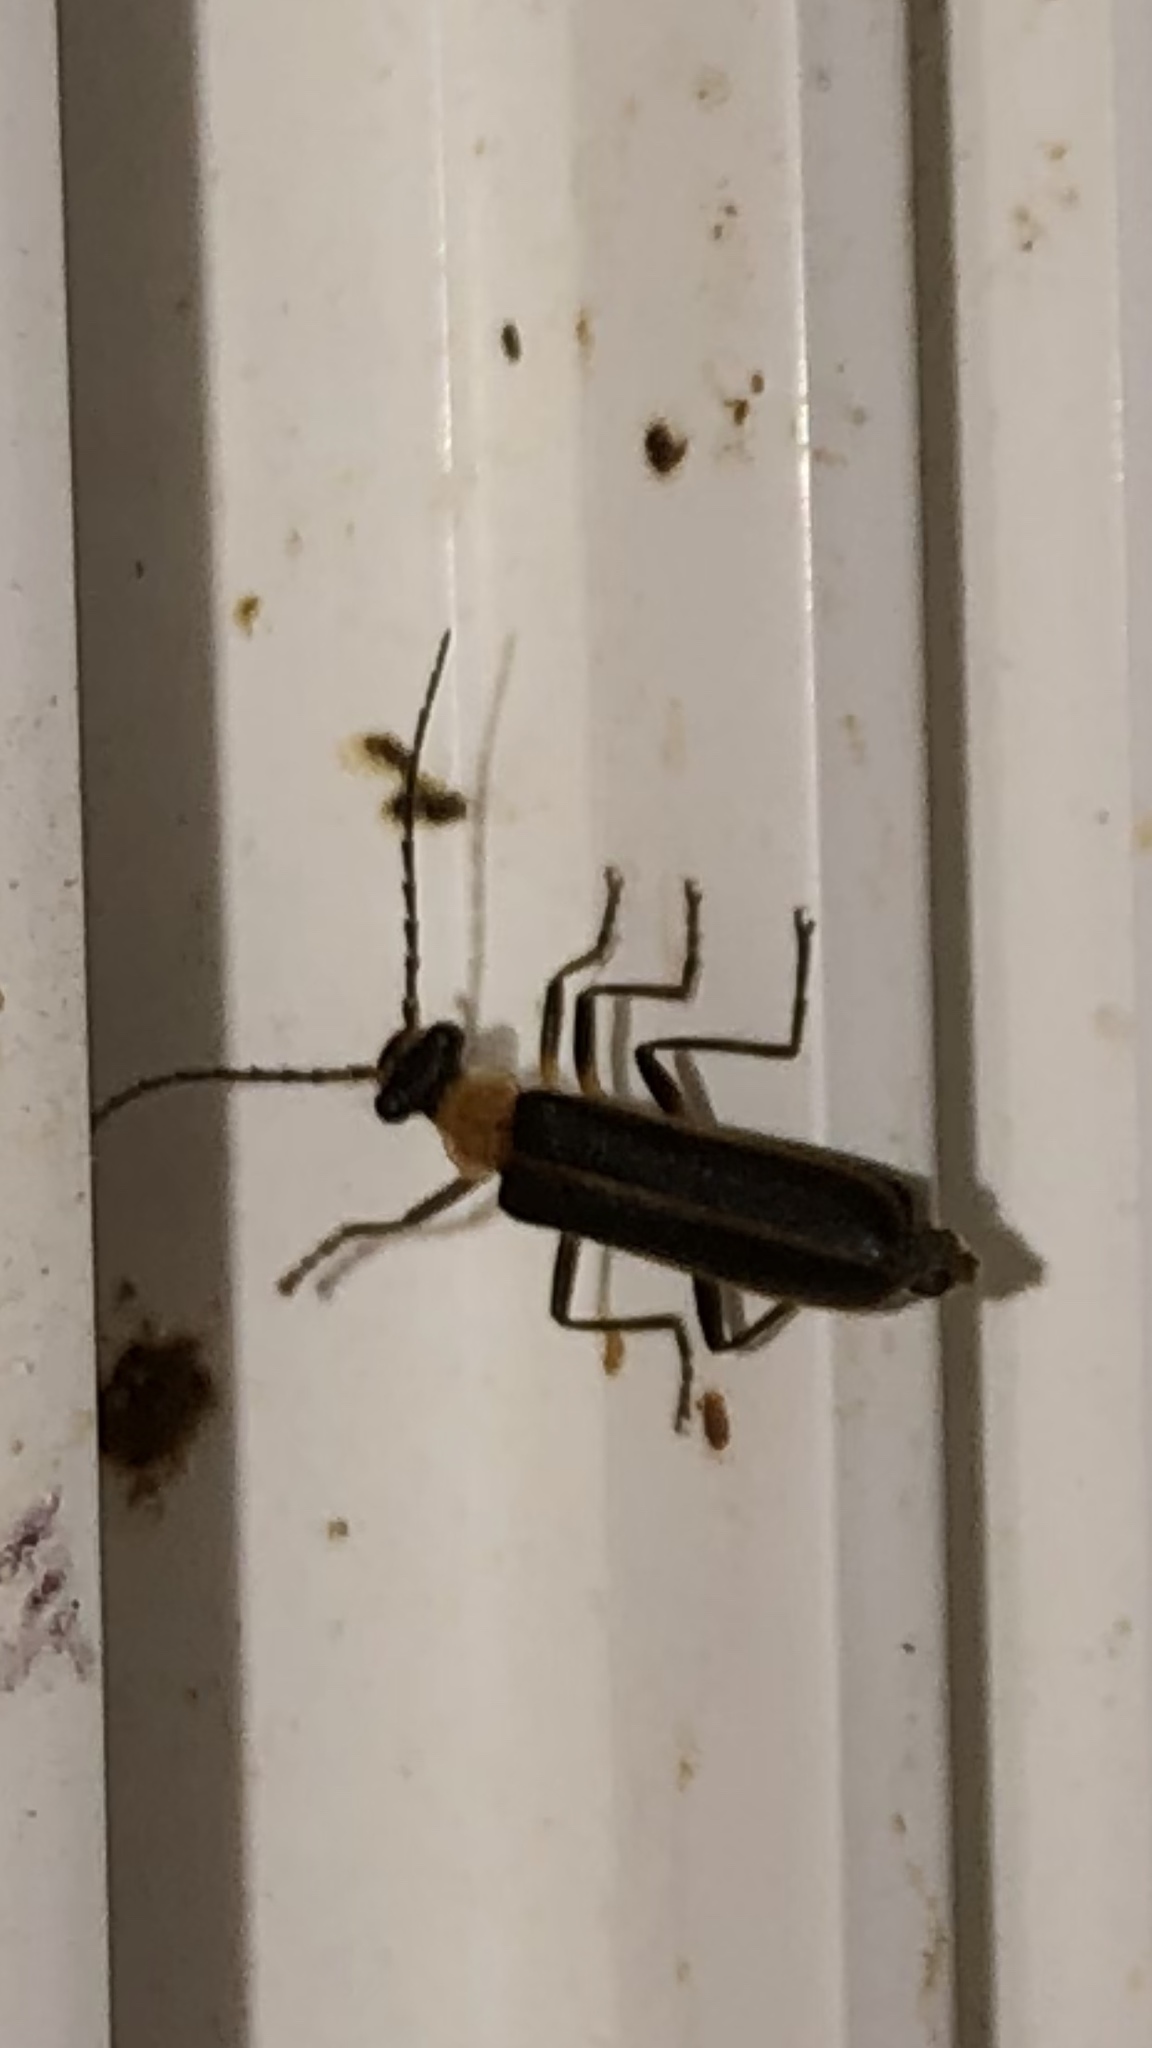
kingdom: Animalia
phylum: Arthropoda
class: Insecta
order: Coleoptera
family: Cantharidae
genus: Podabrus
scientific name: Podabrus flavicollis
